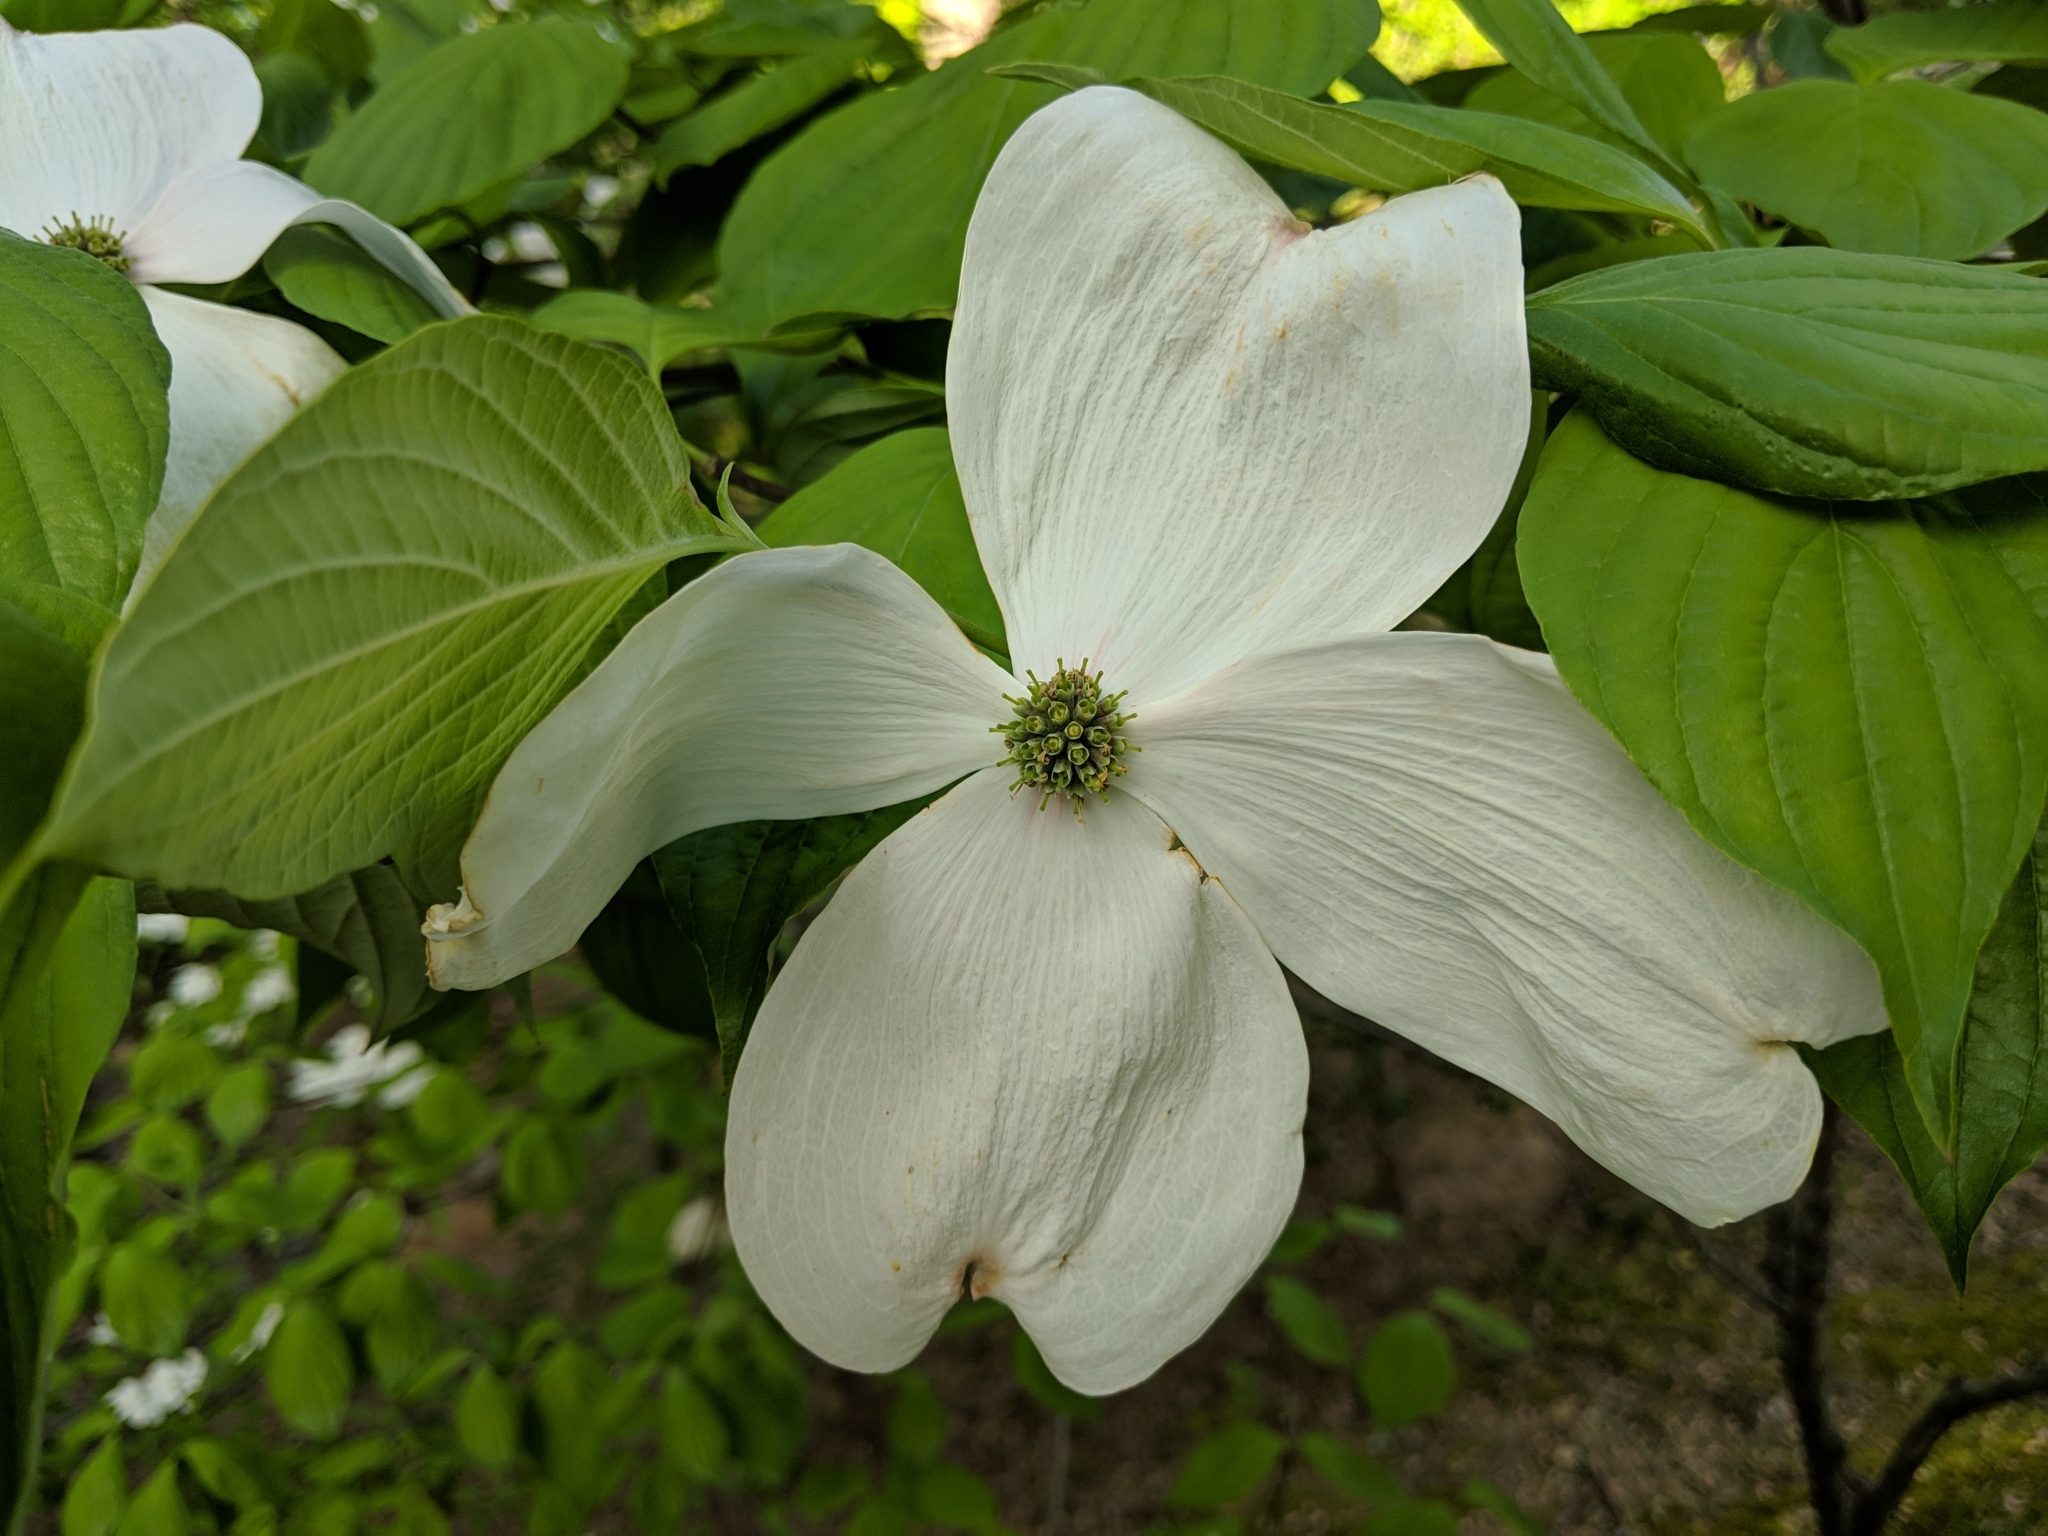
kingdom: Plantae
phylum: Tracheophyta
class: Magnoliopsida
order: Cornales
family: Cornaceae
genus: Cornus
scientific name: Cornus florida
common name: Flowering dogwood
